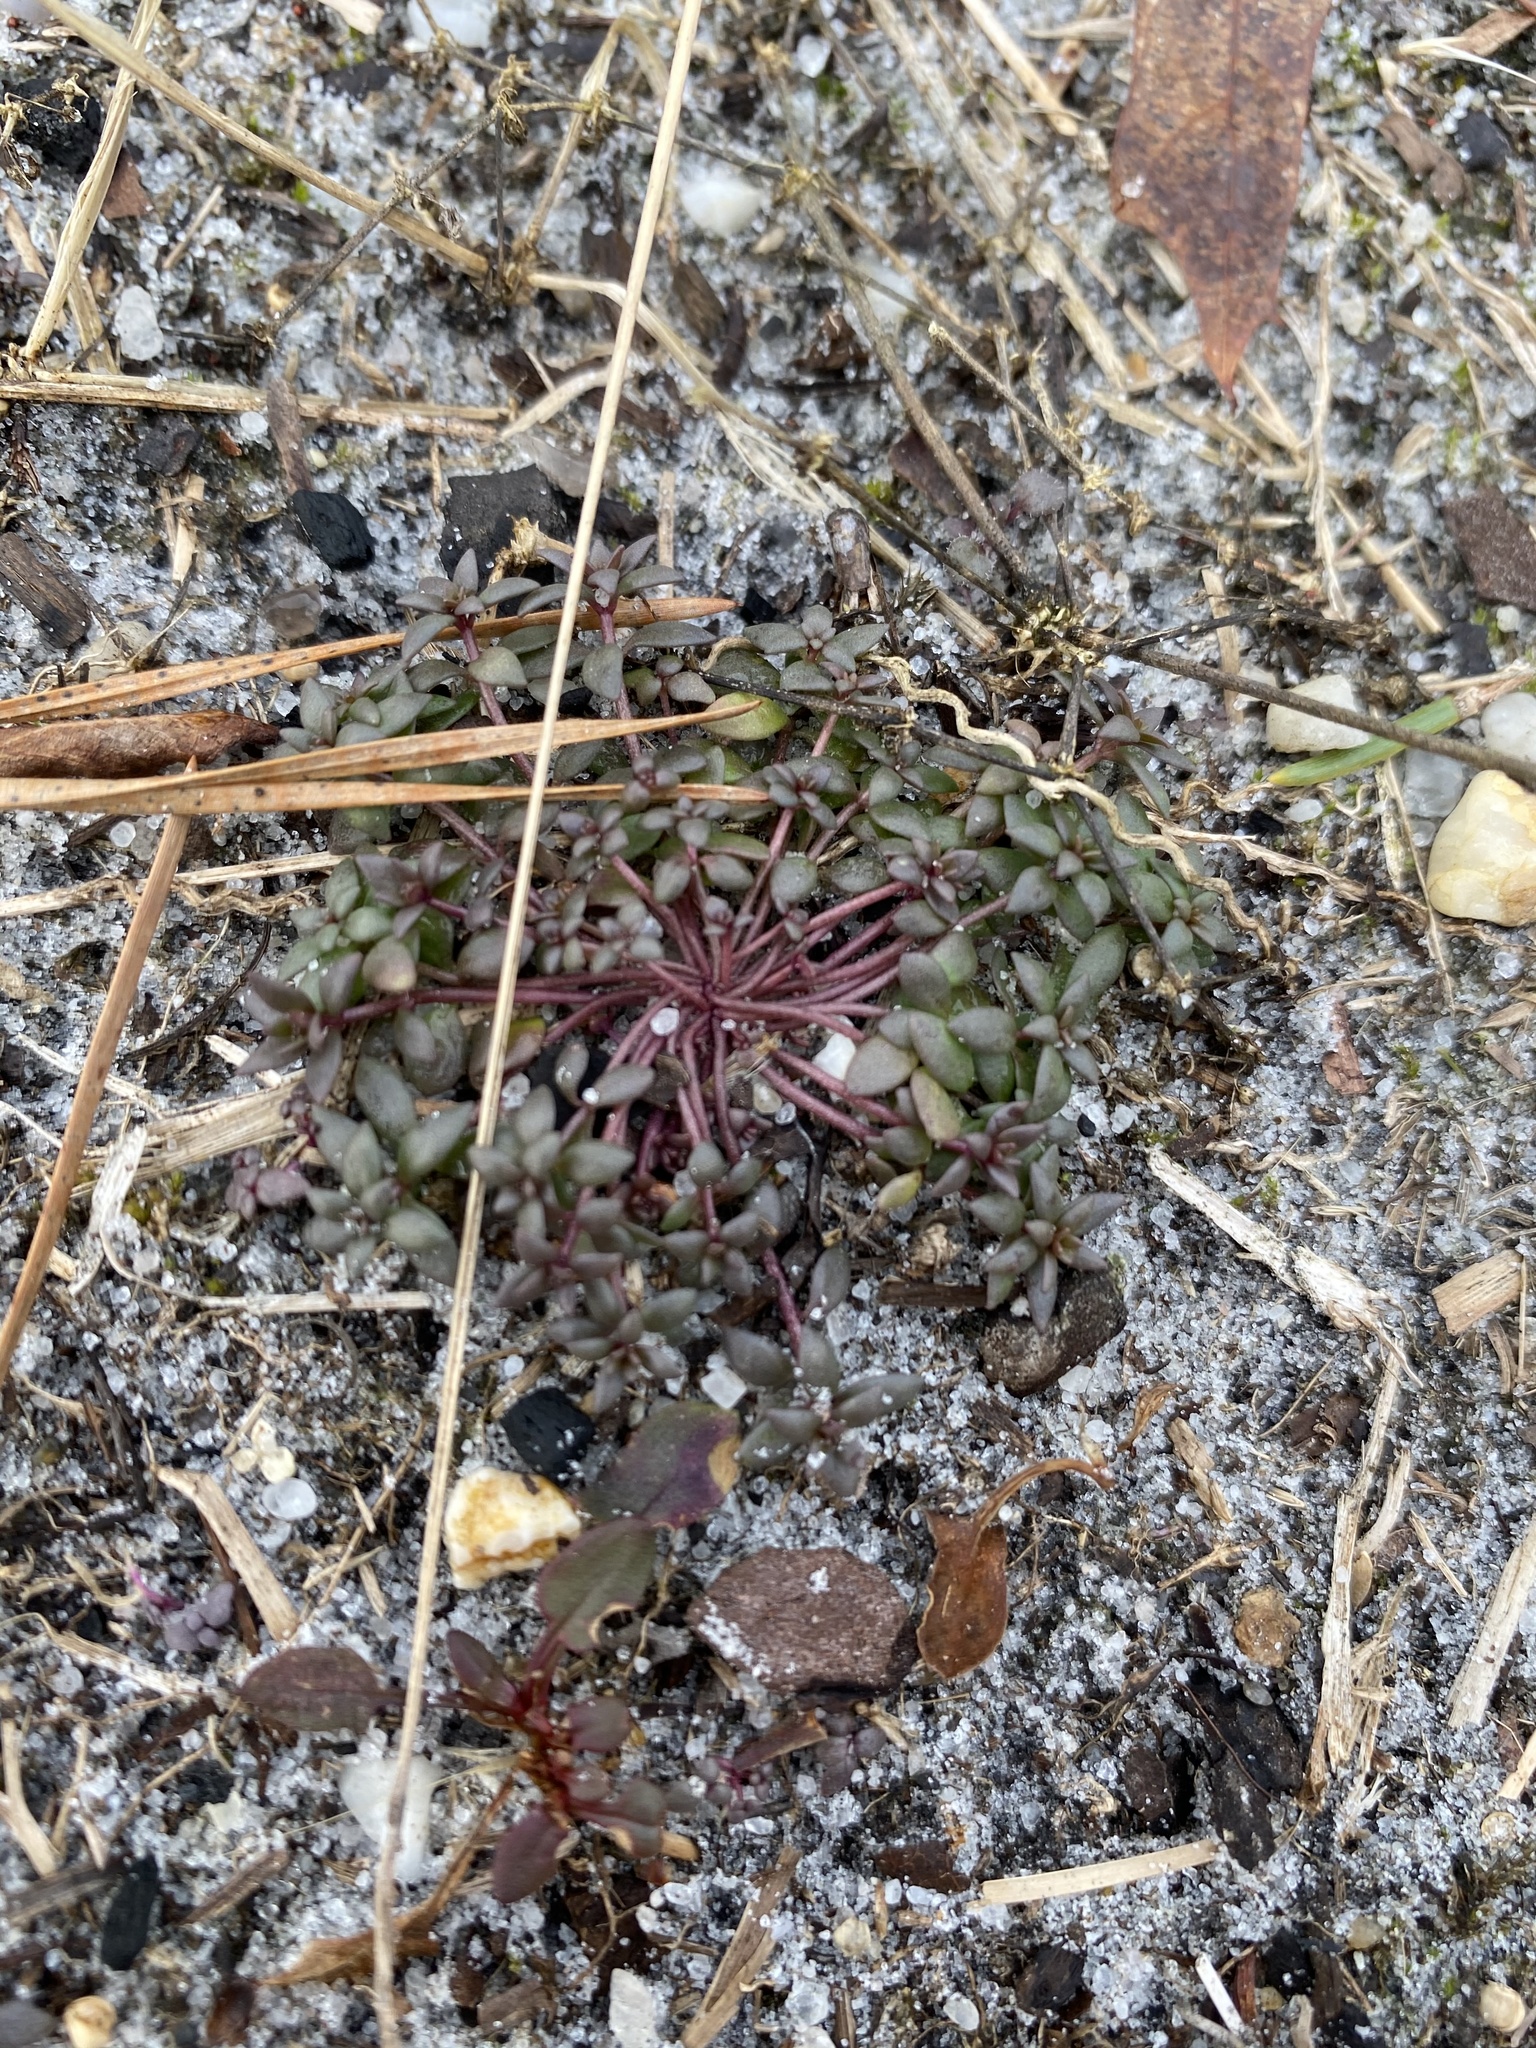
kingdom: Plantae
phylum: Tracheophyta
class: Magnoliopsida
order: Lamiales
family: Plantaginaceae
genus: Nuttallanthus
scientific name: Nuttallanthus canadensis
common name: Blue toadflax
